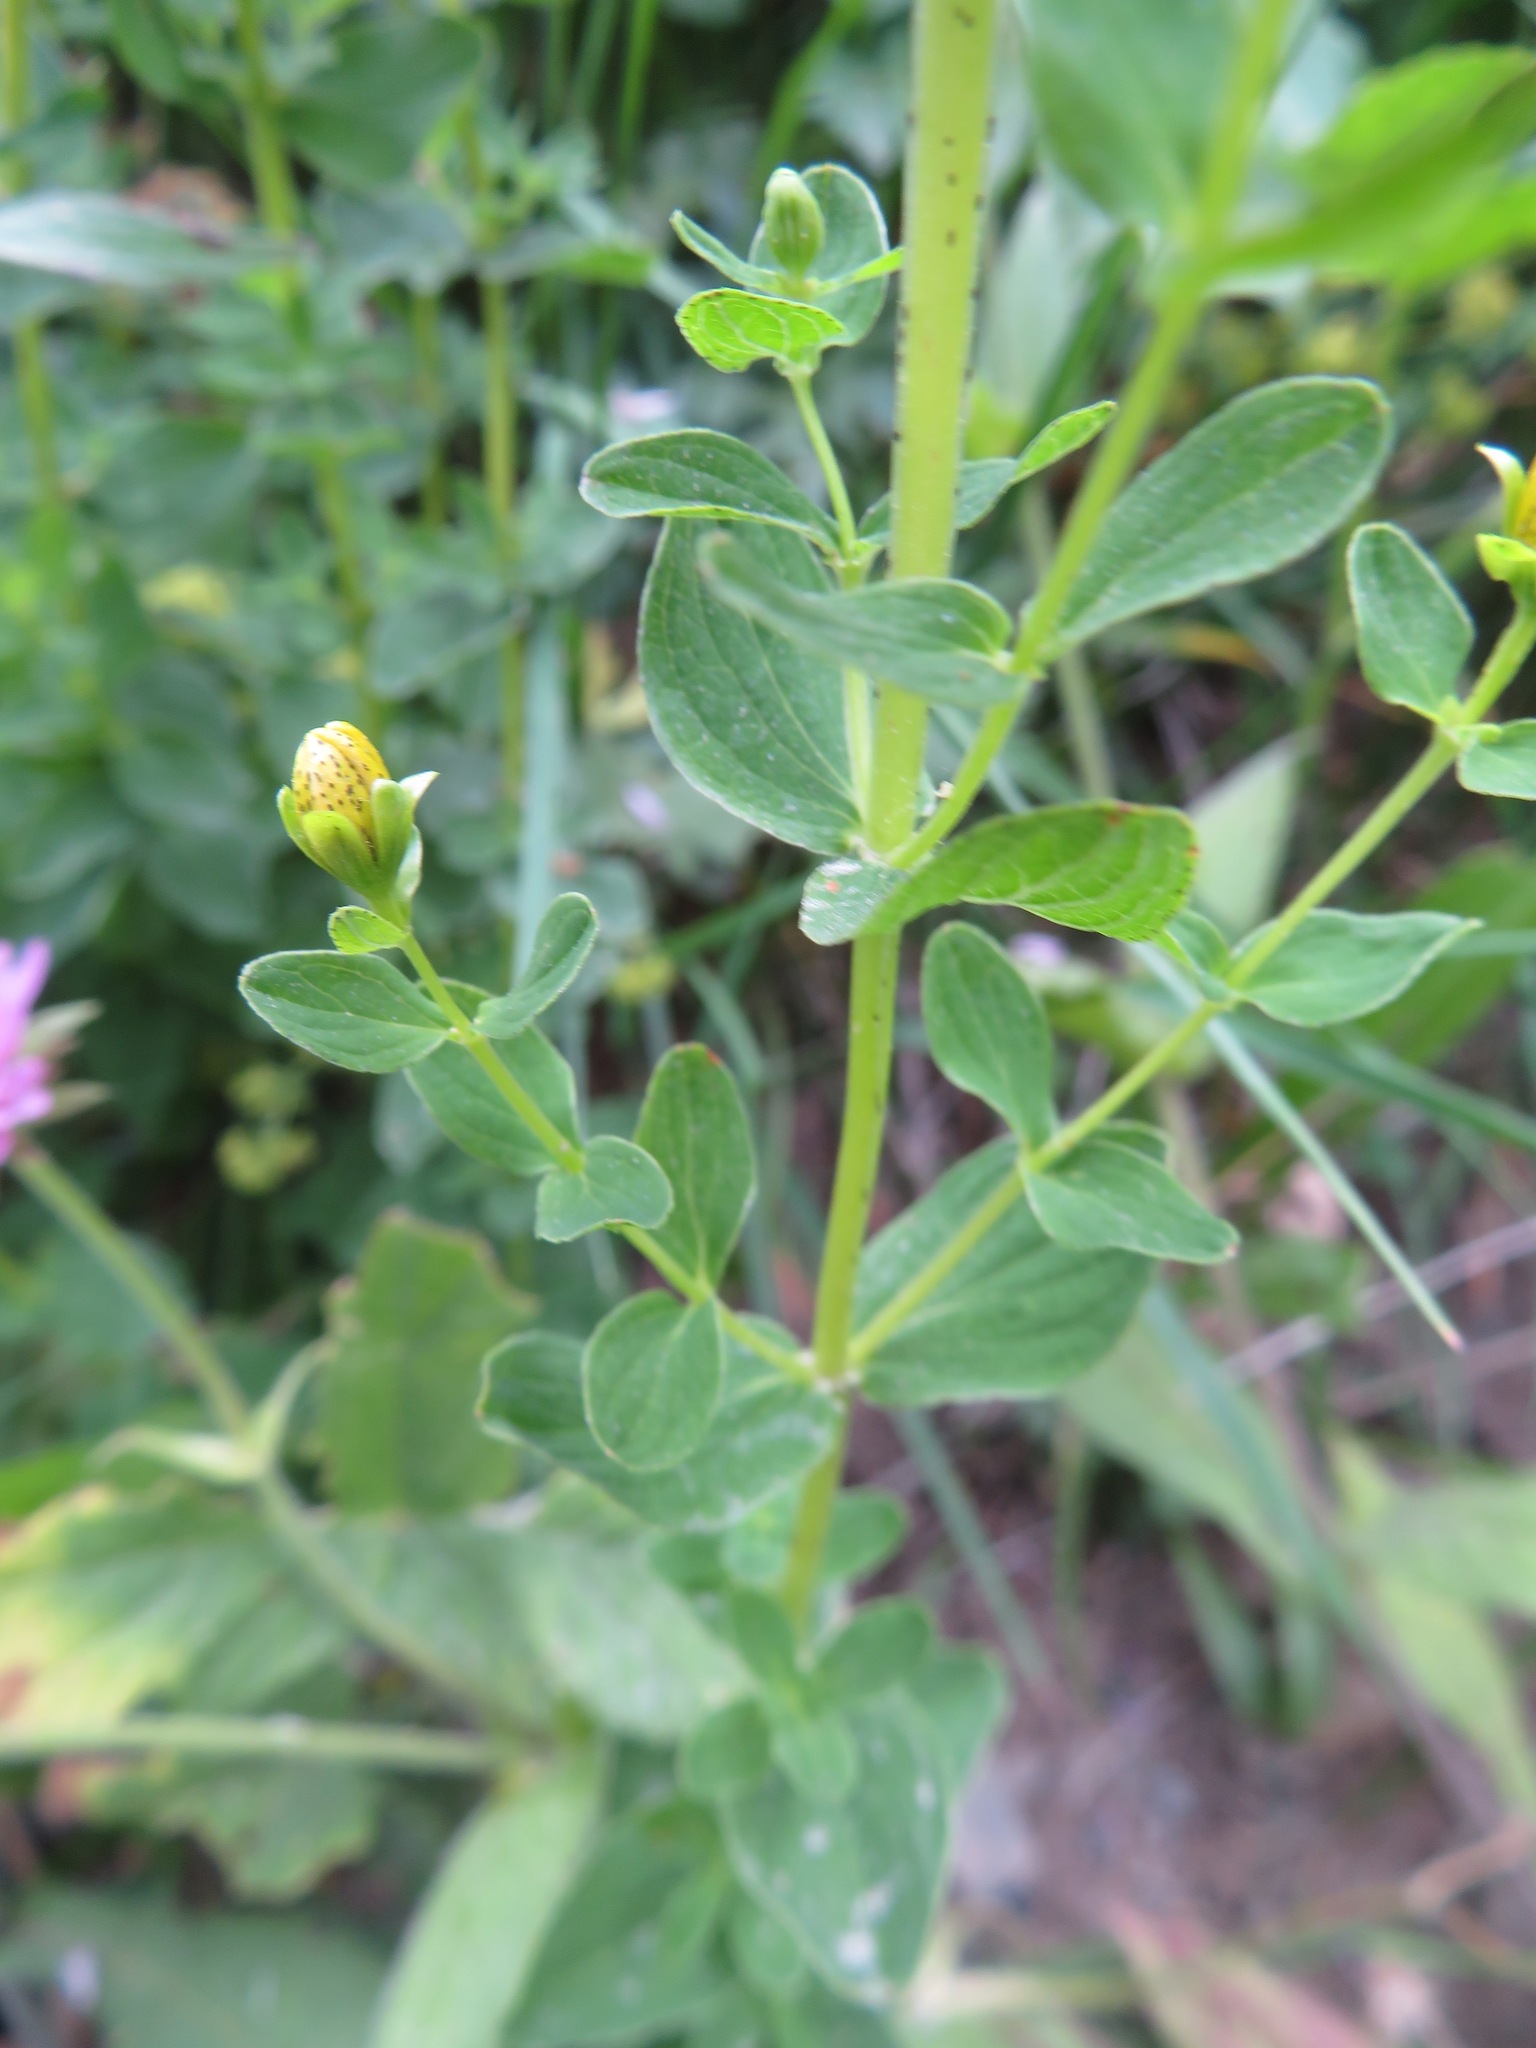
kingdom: Plantae
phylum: Tracheophyta
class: Magnoliopsida
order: Malpighiales
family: Hypericaceae
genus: Hypericum
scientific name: Hypericum maculatum
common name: Imperforate st. john's-wort
